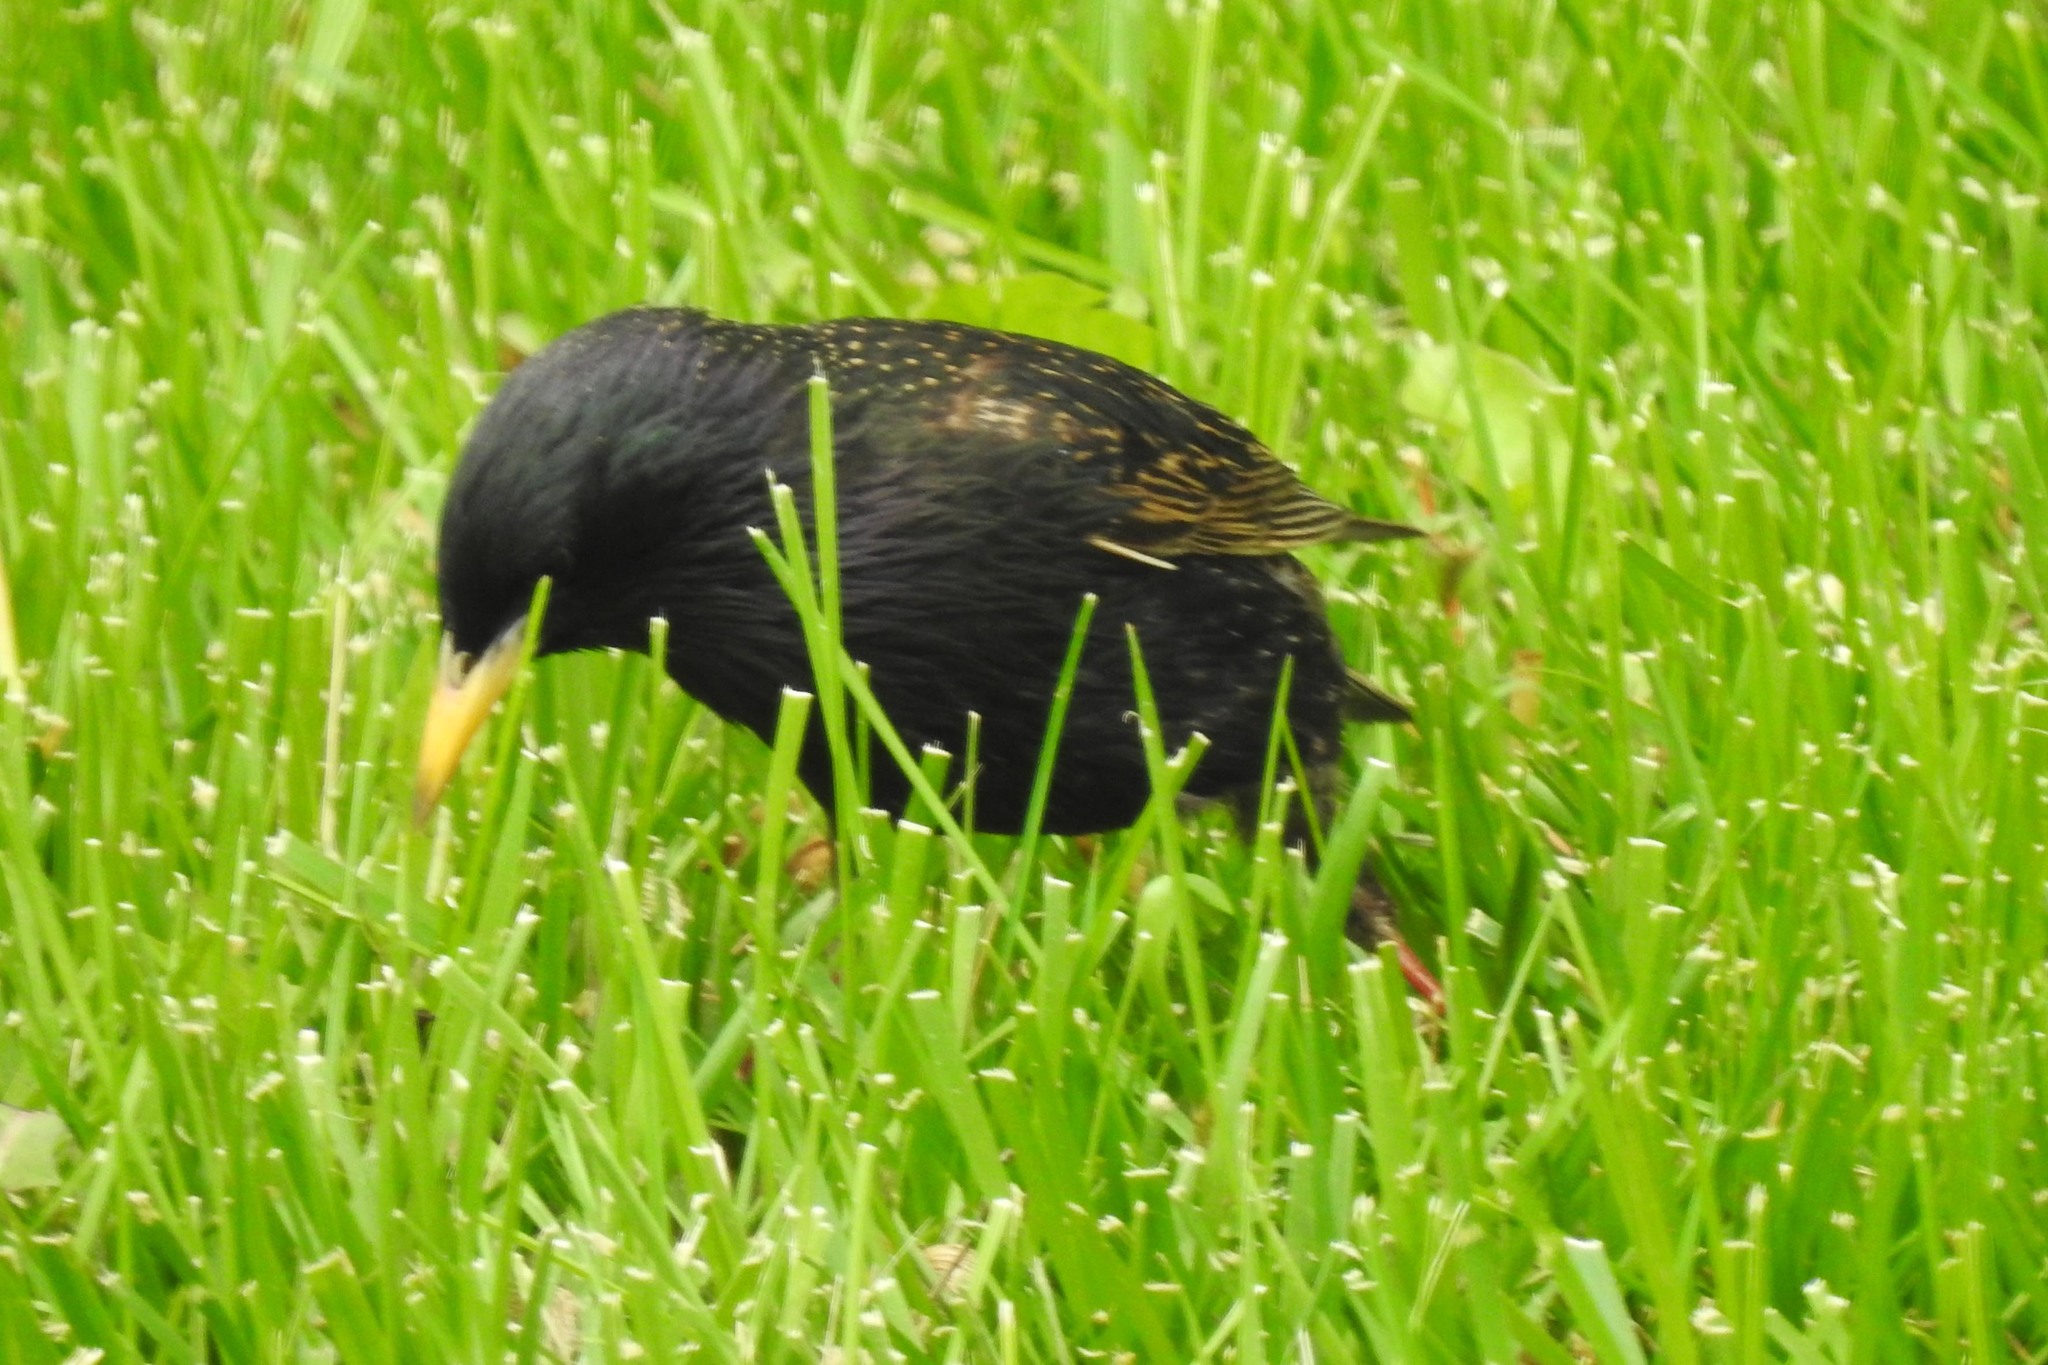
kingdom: Animalia
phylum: Chordata
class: Aves
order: Passeriformes
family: Sturnidae
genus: Sturnus
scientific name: Sturnus vulgaris
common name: Common starling
